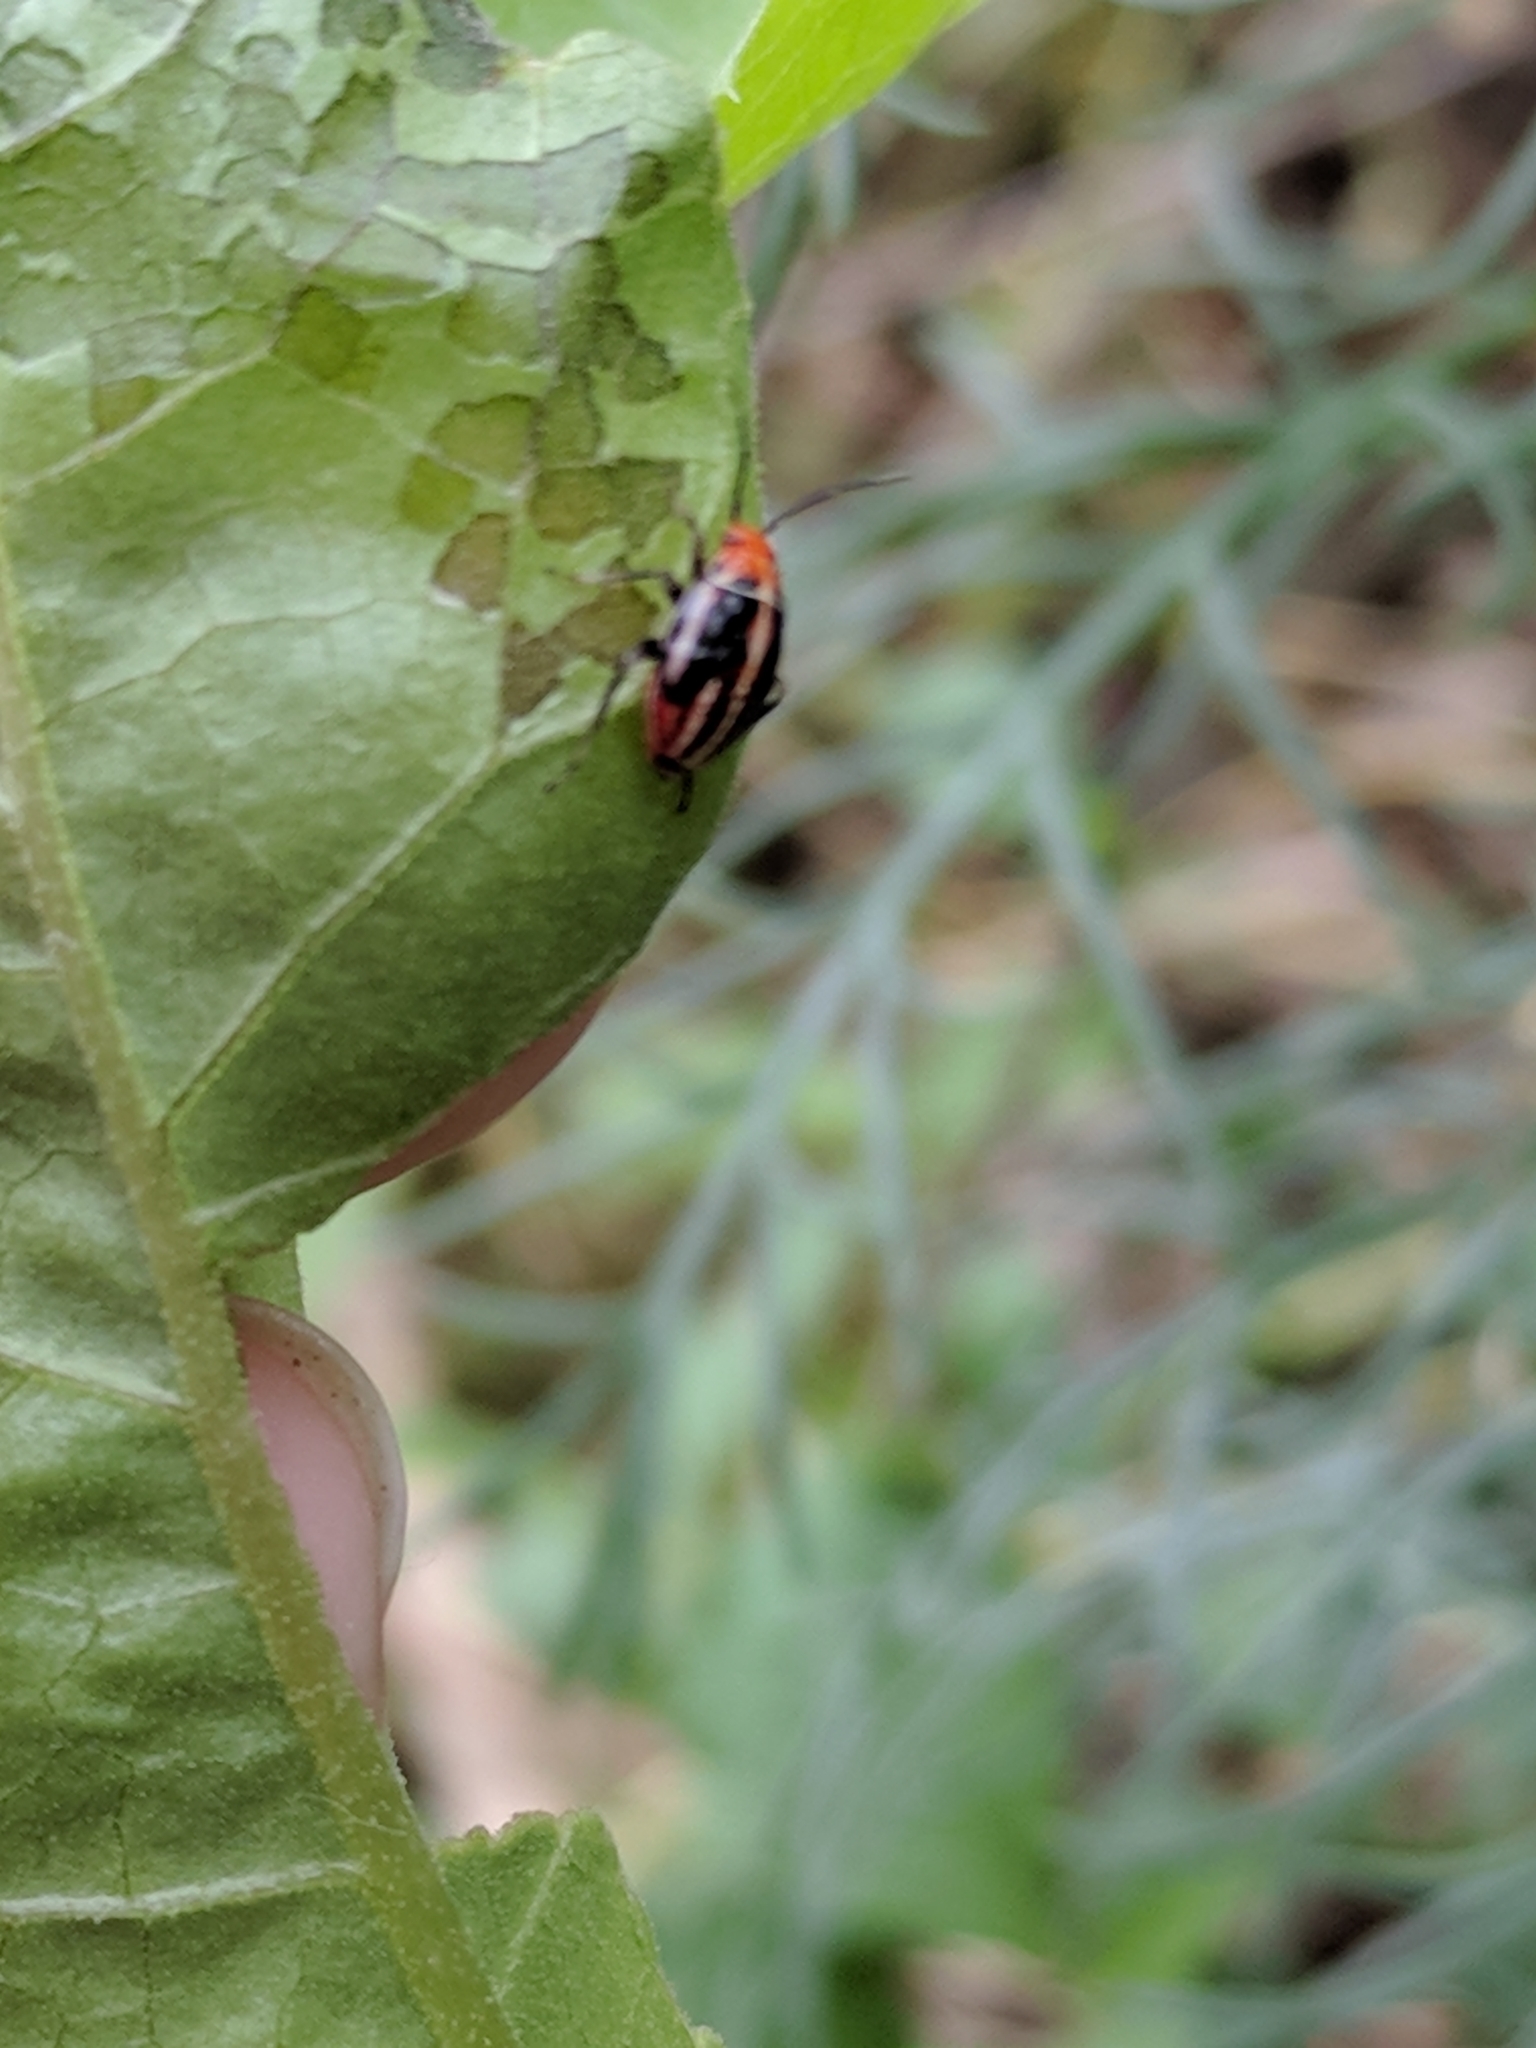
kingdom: Animalia
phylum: Arthropoda
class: Insecta
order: Hemiptera
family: Miridae
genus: Poecilocapsus
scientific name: Poecilocapsus lineatus
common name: Four-lined plant bug
